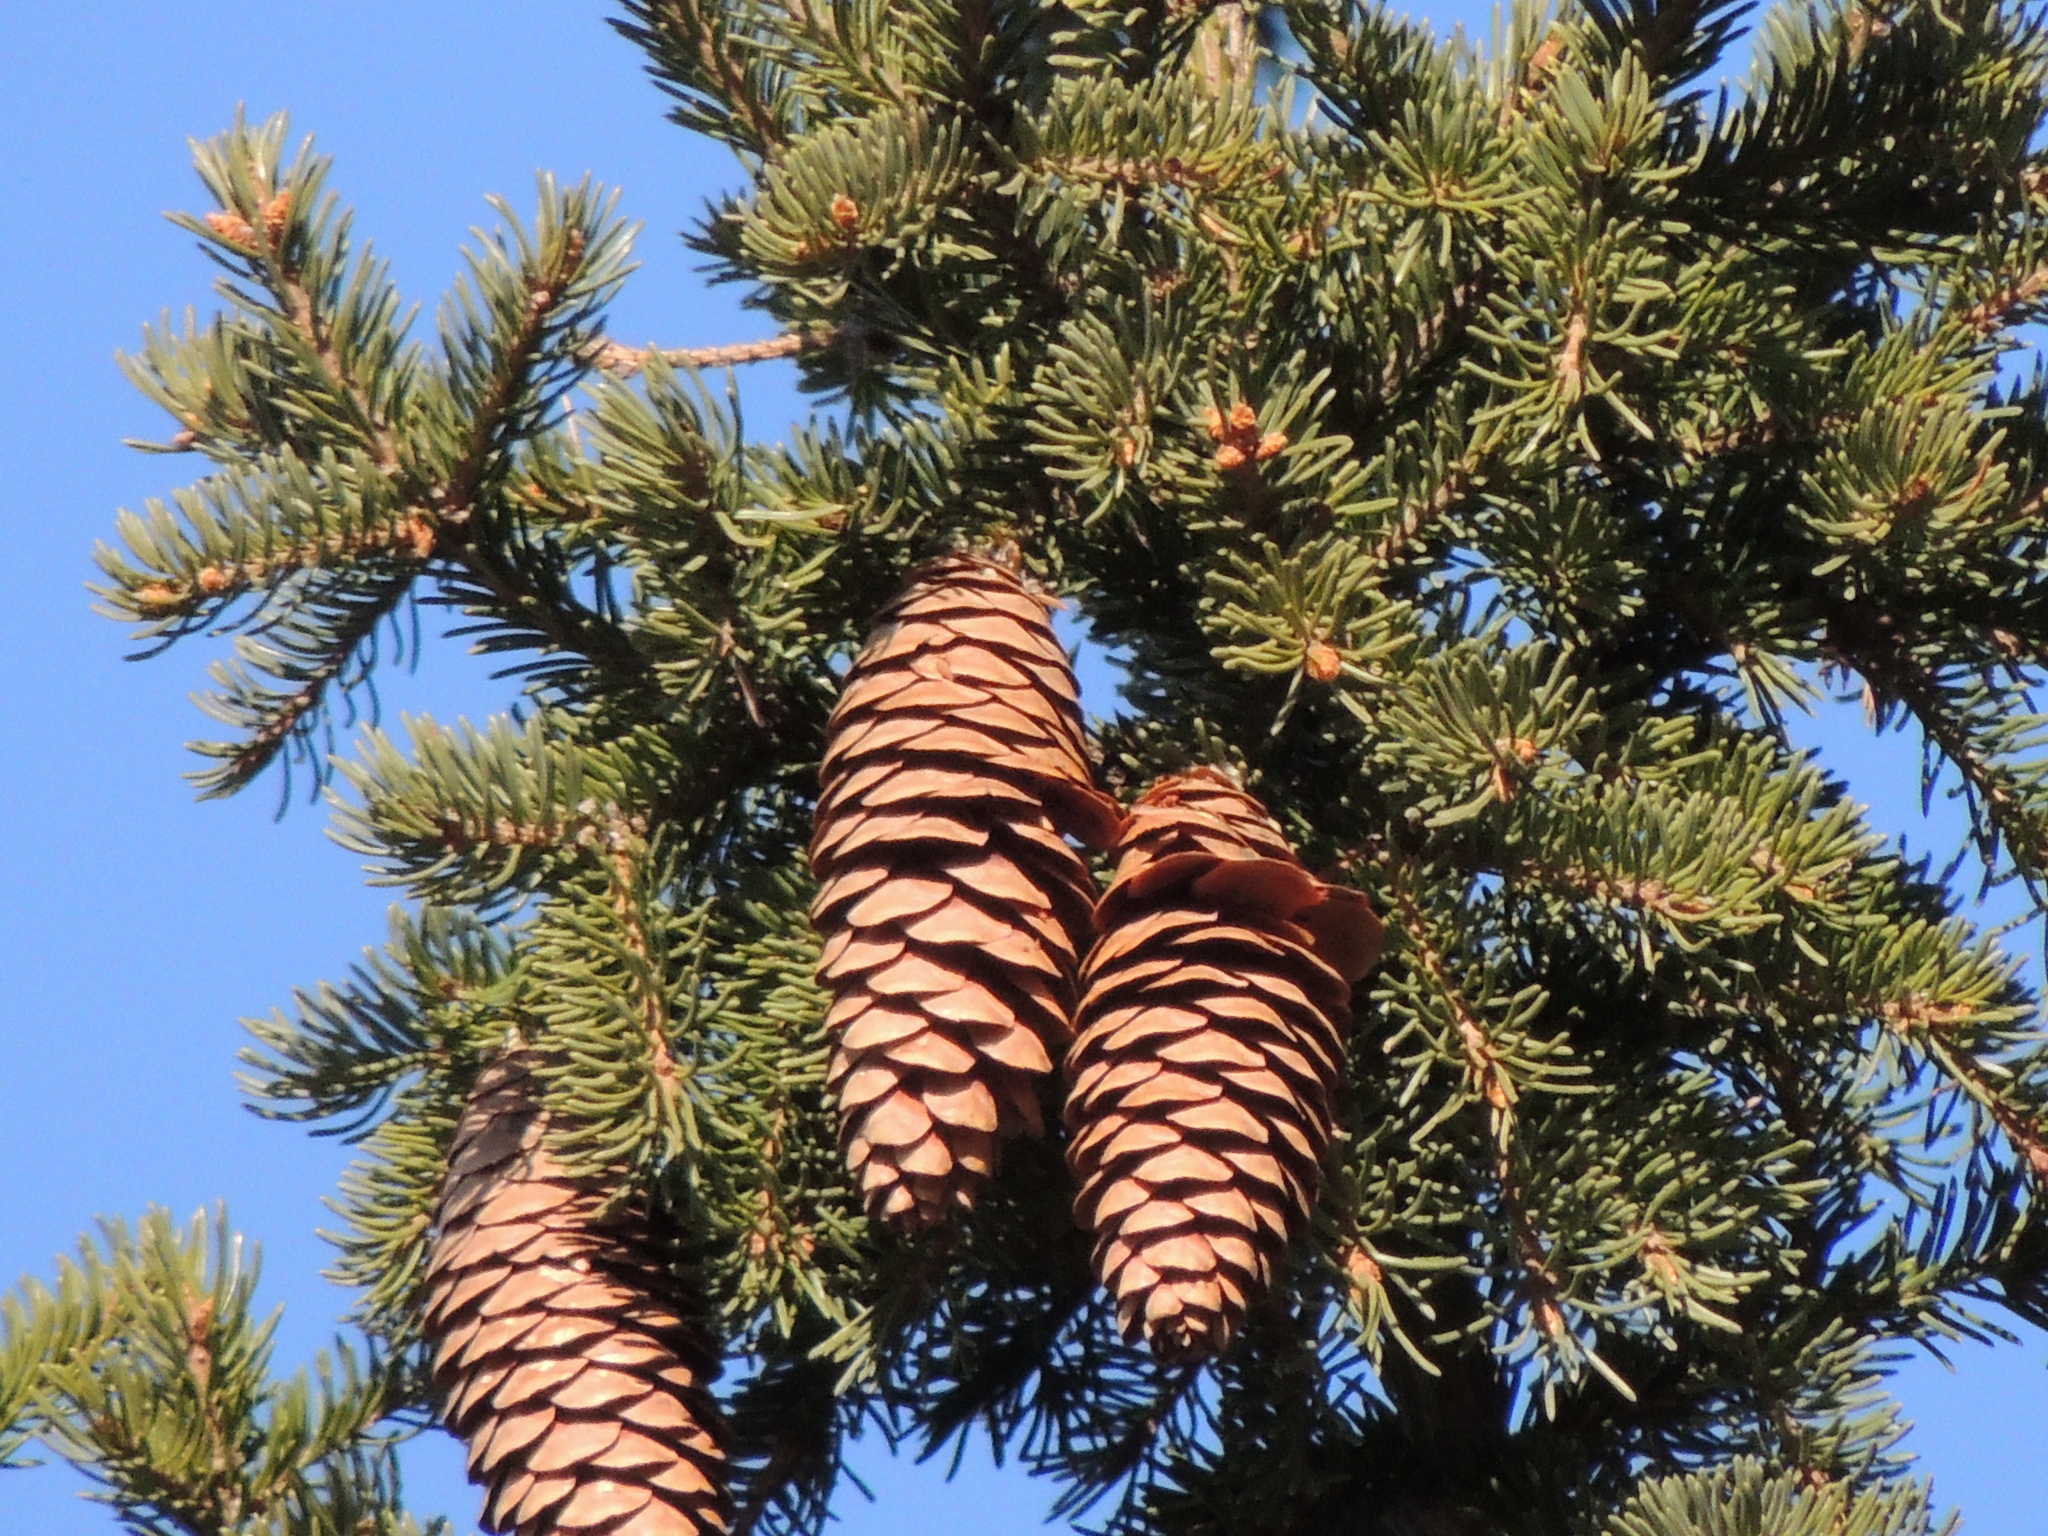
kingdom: Plantae
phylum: Tracheophyta
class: Pinopsida
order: Pinales
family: Pinaceae
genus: Picea
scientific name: Picea obovata
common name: Siberian spruce
